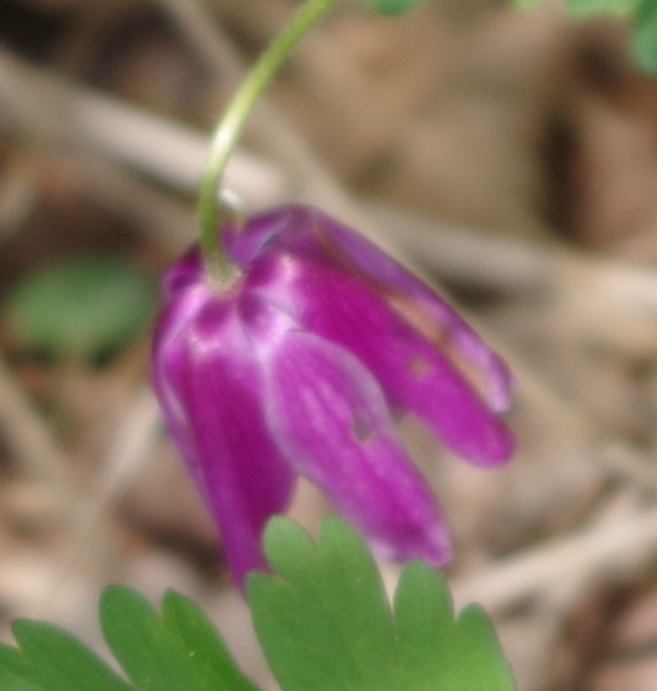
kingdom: Plantae
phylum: Tracheophyta
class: Magnoliopsida
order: Ranunculales
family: Ranunculaceae
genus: Anemone
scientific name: Anemone nemorosa
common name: Wood anemone
